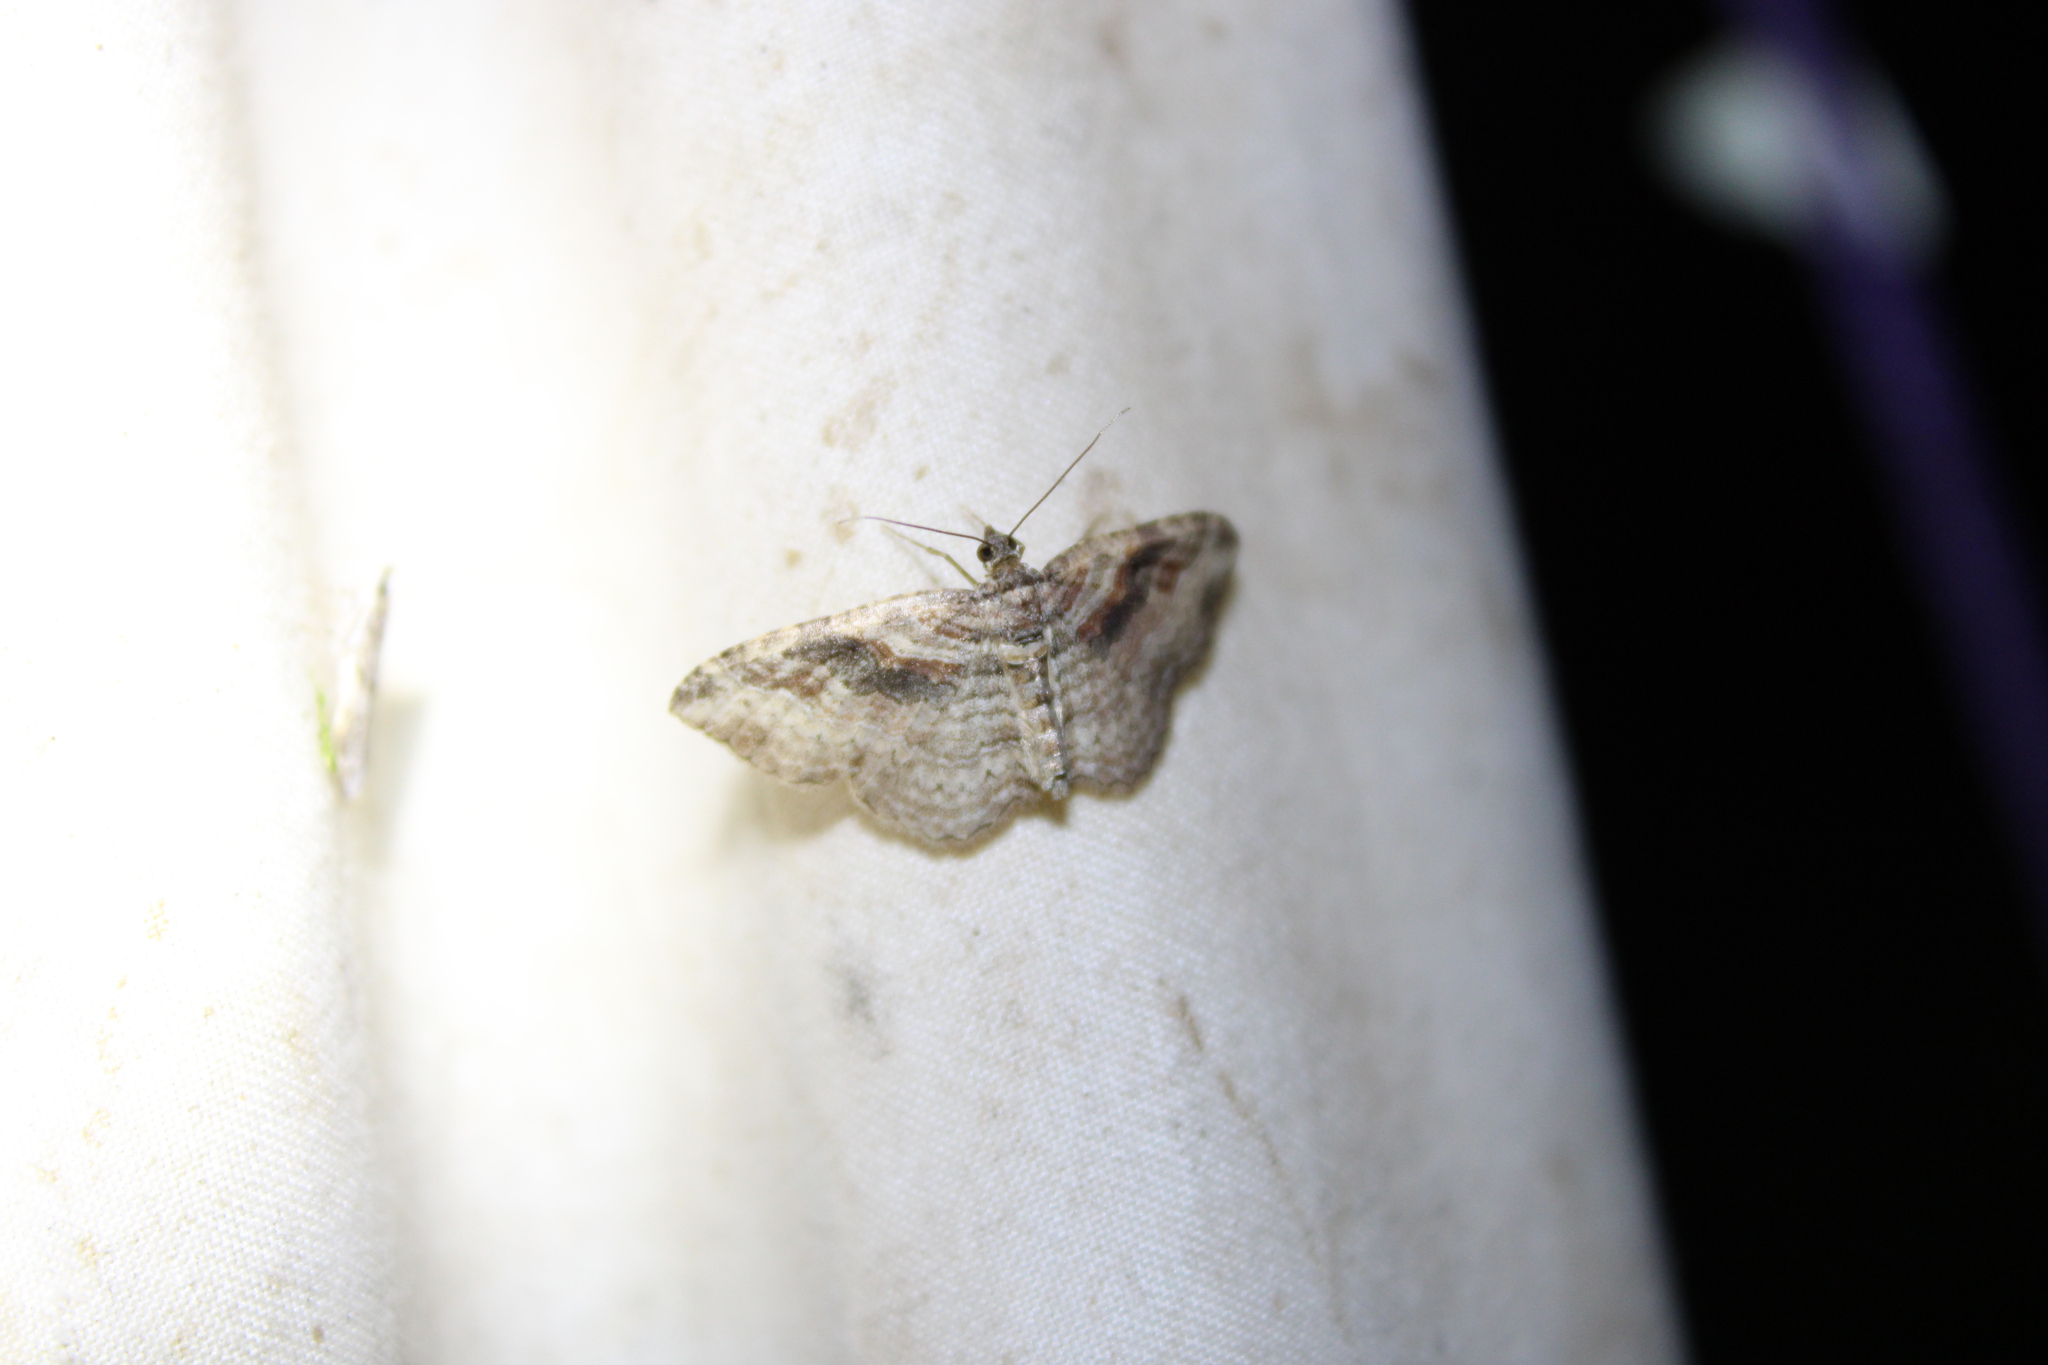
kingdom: Animalia
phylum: Arthropoda
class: Insecta
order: Lepidoptera
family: Geometridae
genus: Costaconvexa
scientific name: Costaconvexa centrostrigaria
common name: Bent-line carpet
